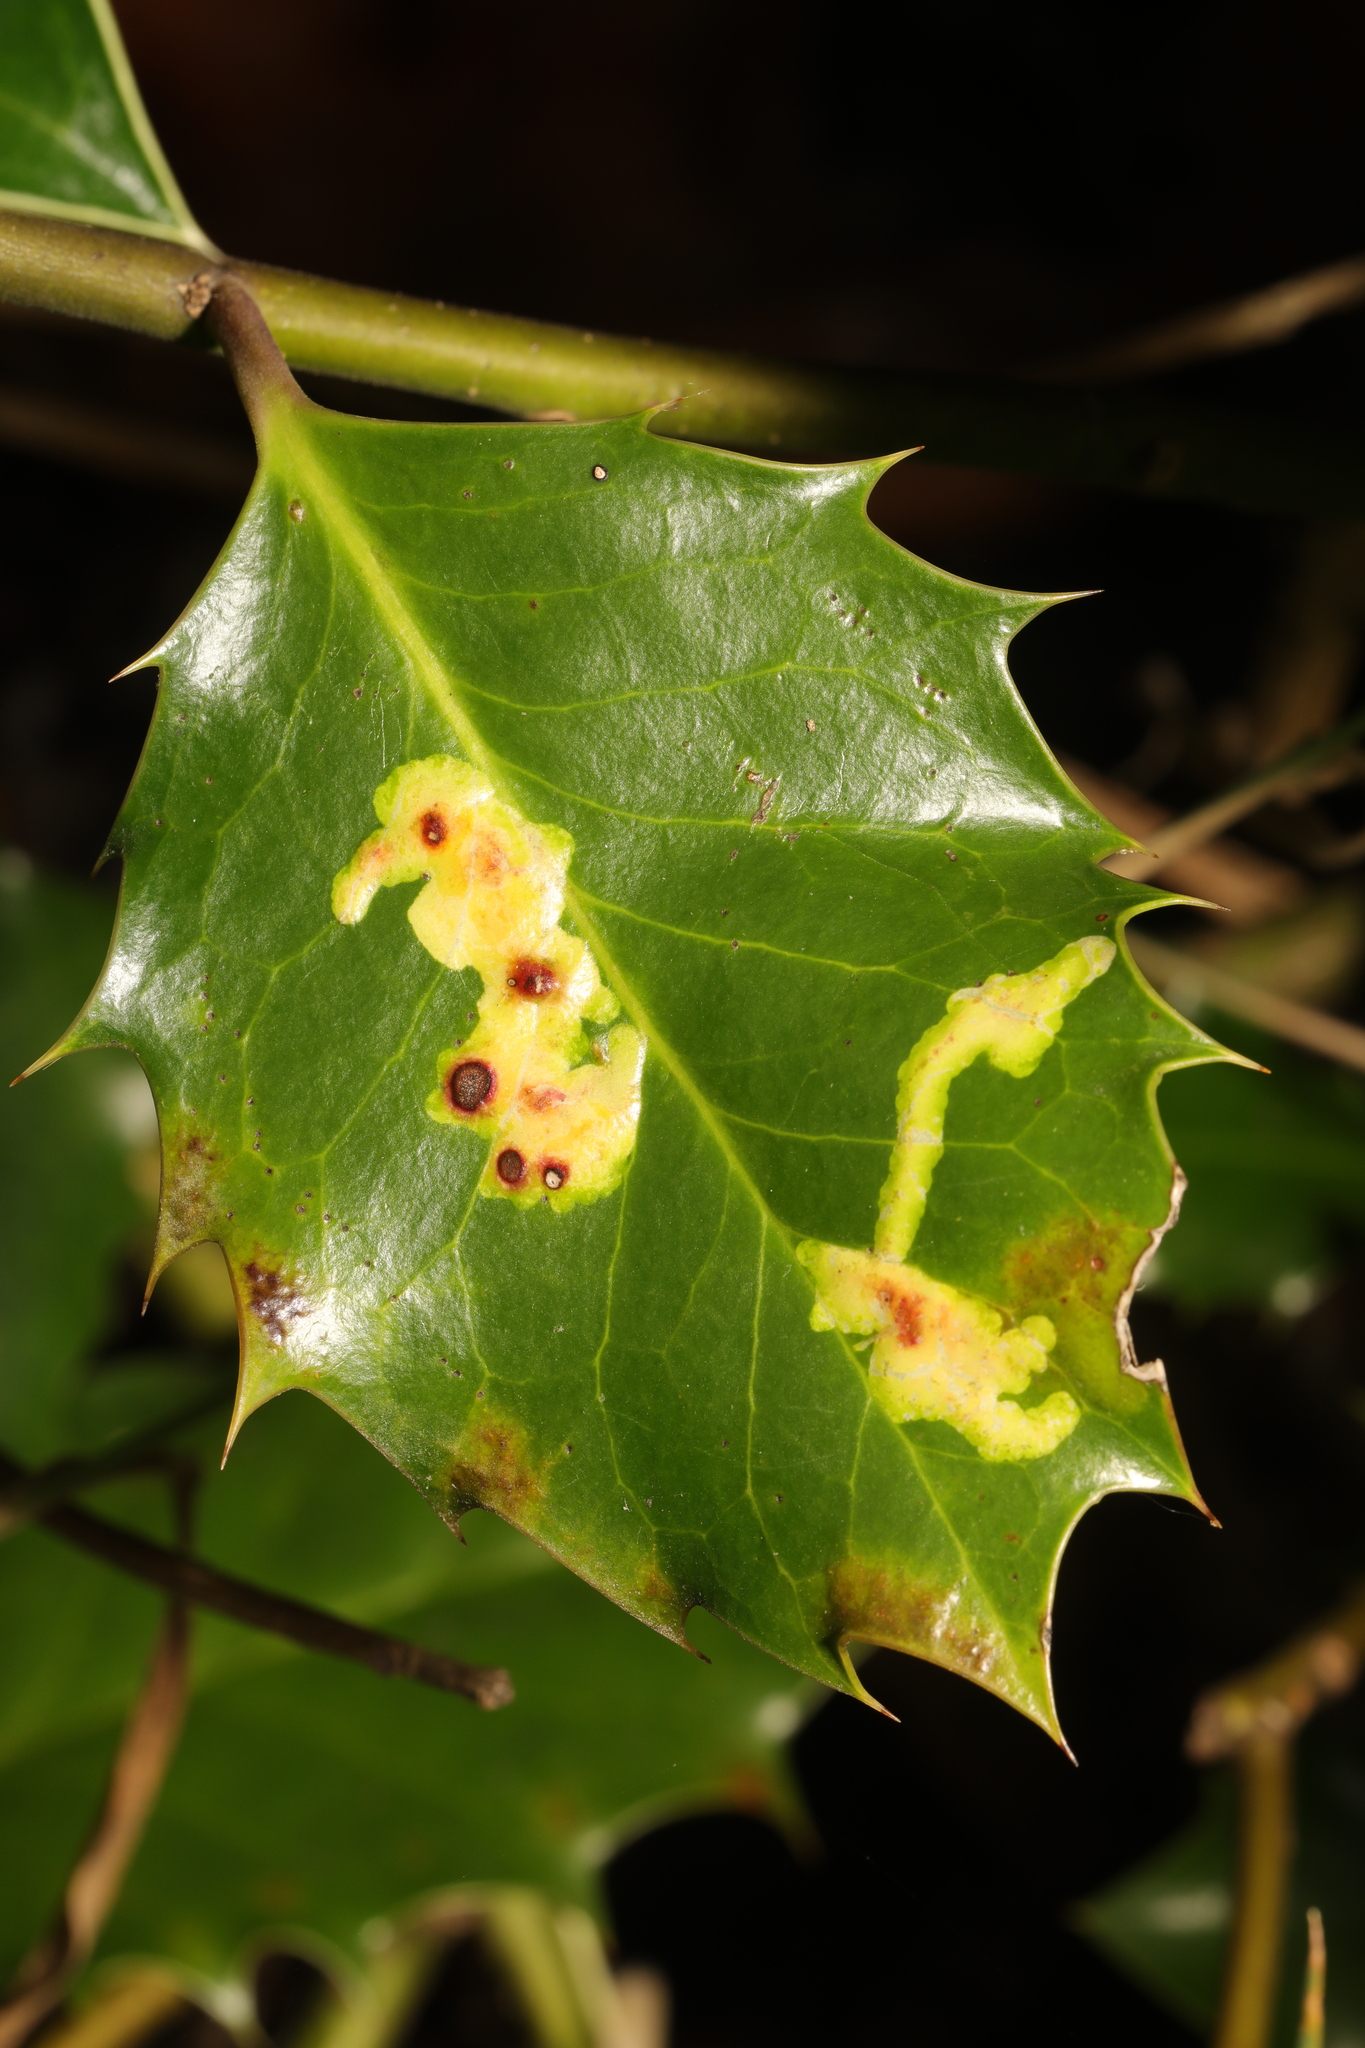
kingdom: Animalia
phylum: Arthropoda
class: Insecta
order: Diptera
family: Agromyzidae
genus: Phytomyza
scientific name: Phytomyza ilicis
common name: Holly leafminer
